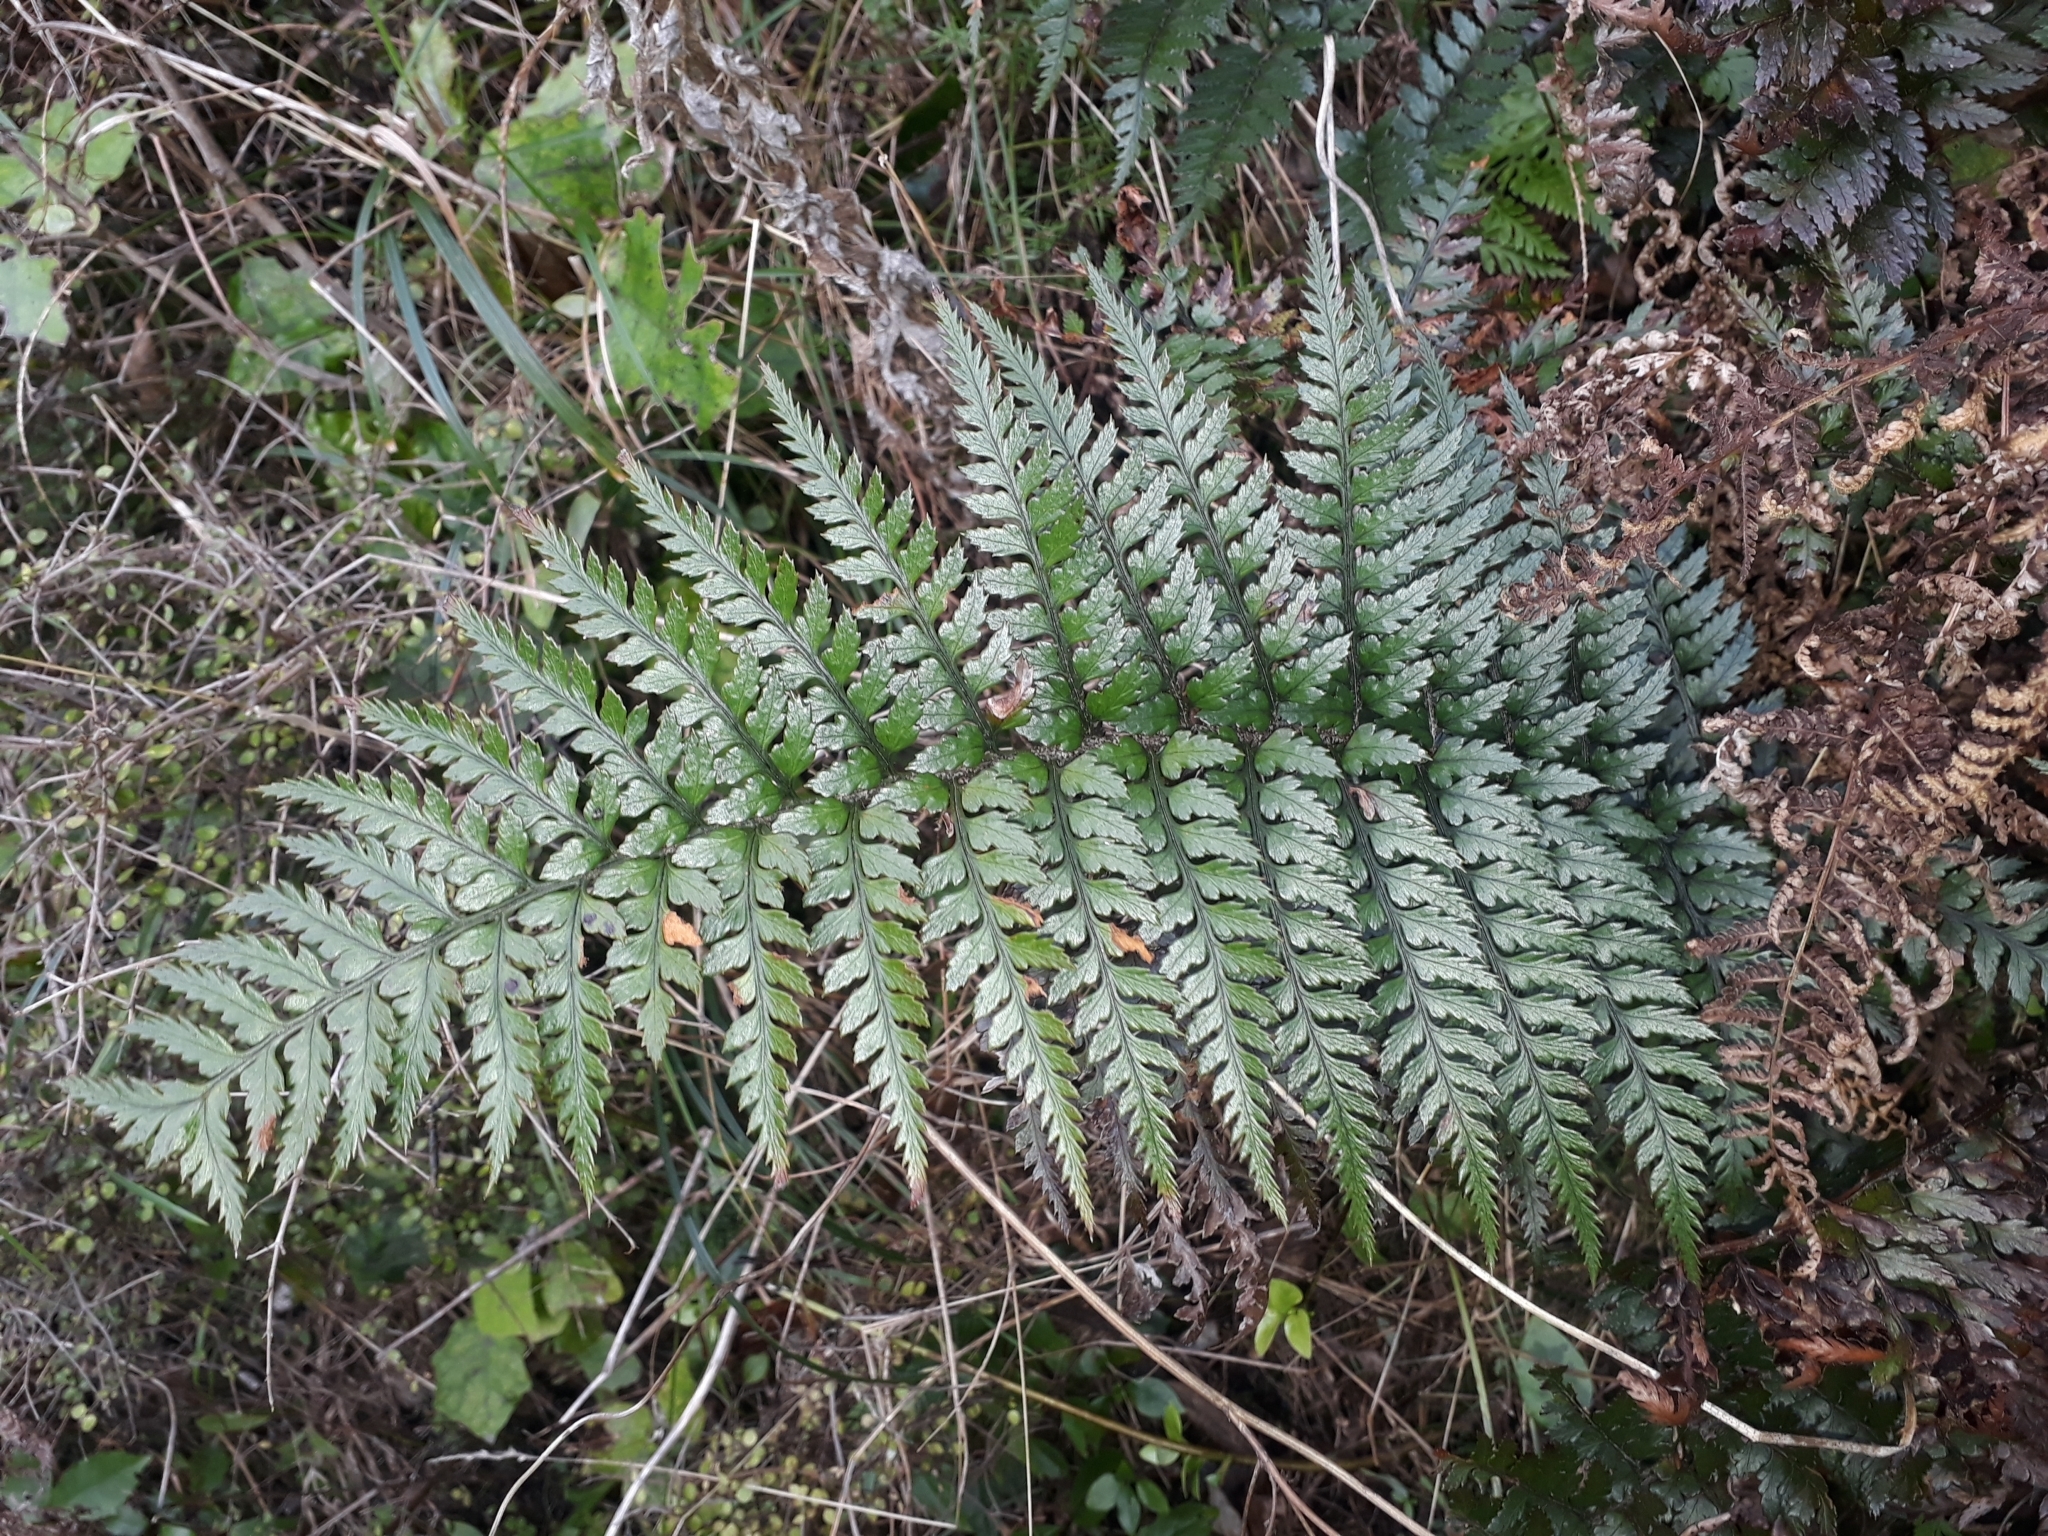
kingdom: Plantae
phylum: Tracheophyta
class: Polypodiopsida
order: Polypodiales
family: Dryopteridaceae
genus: Polystichum
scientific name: Polystichum neozelandicum
